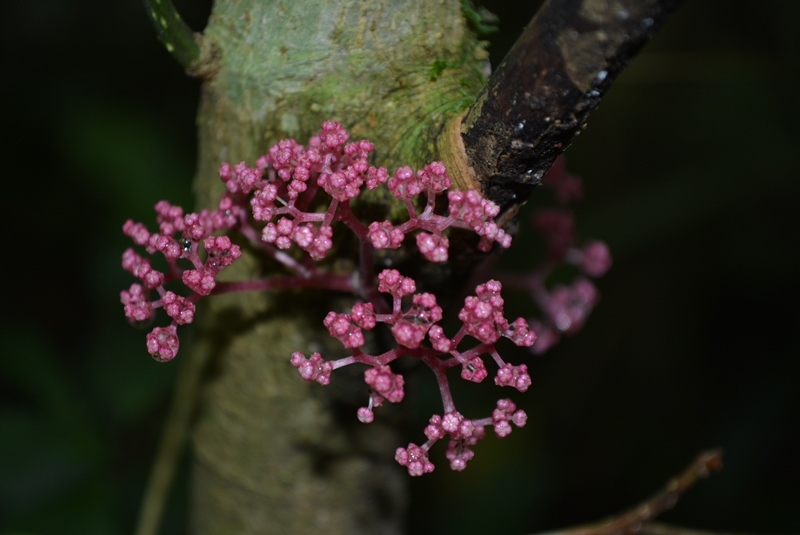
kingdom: Plantae
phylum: Tracheophyta
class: Magnoliopsida
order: Rosales
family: Urticaceae
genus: Urera
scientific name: Urera elata
